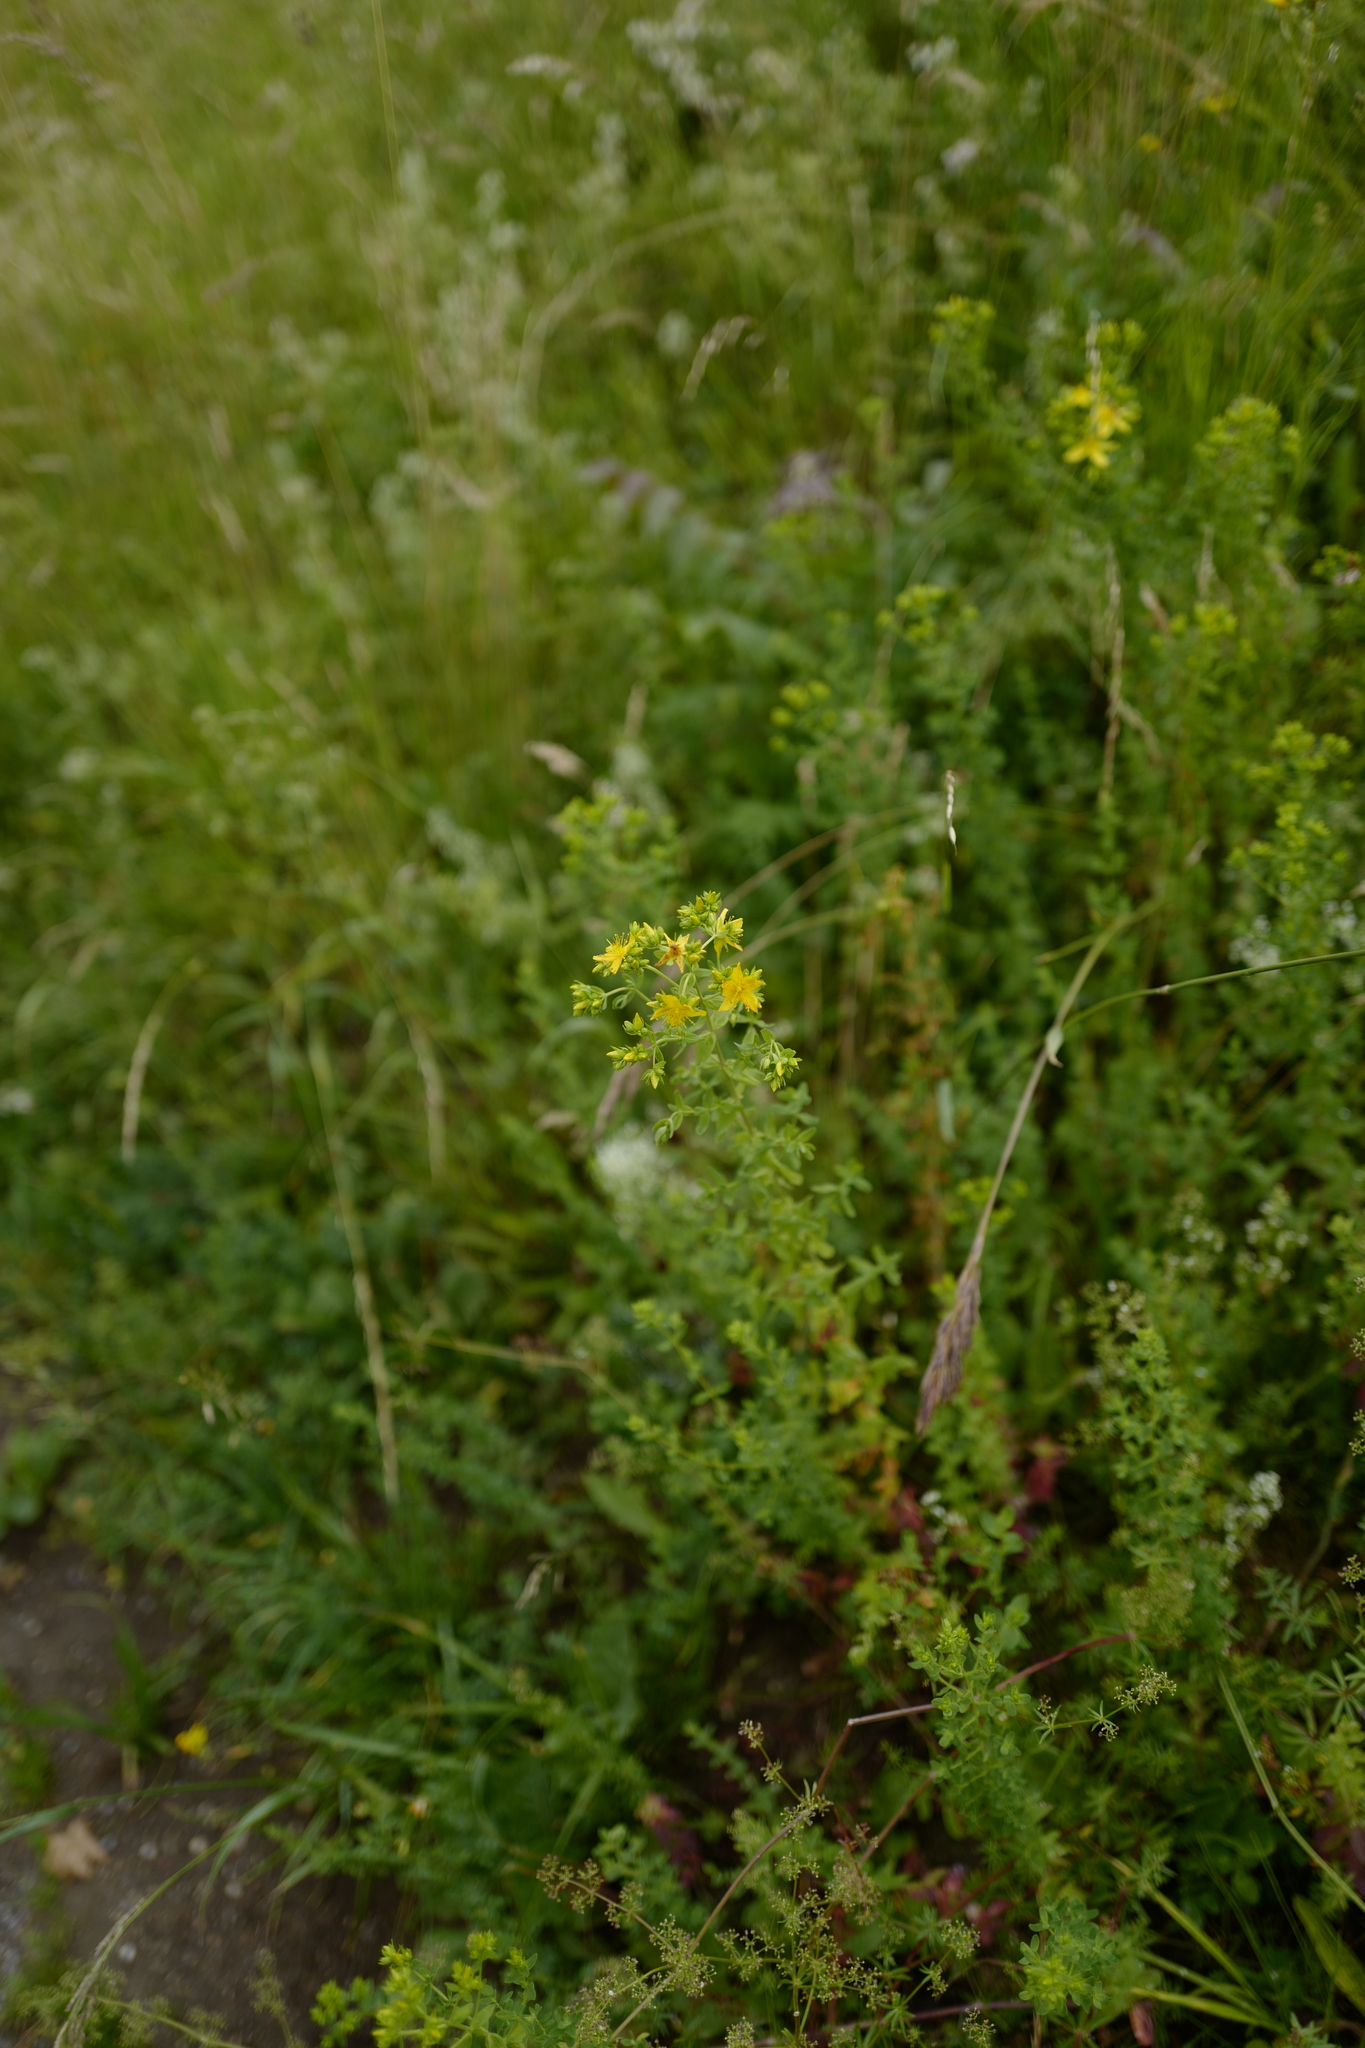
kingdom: Plantae
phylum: Tracheophyta
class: Magnoliopsida
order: Malpighiales
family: Hypericaceae
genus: Hypericum
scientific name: Hypericum perforatum
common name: Common st. johnswort
